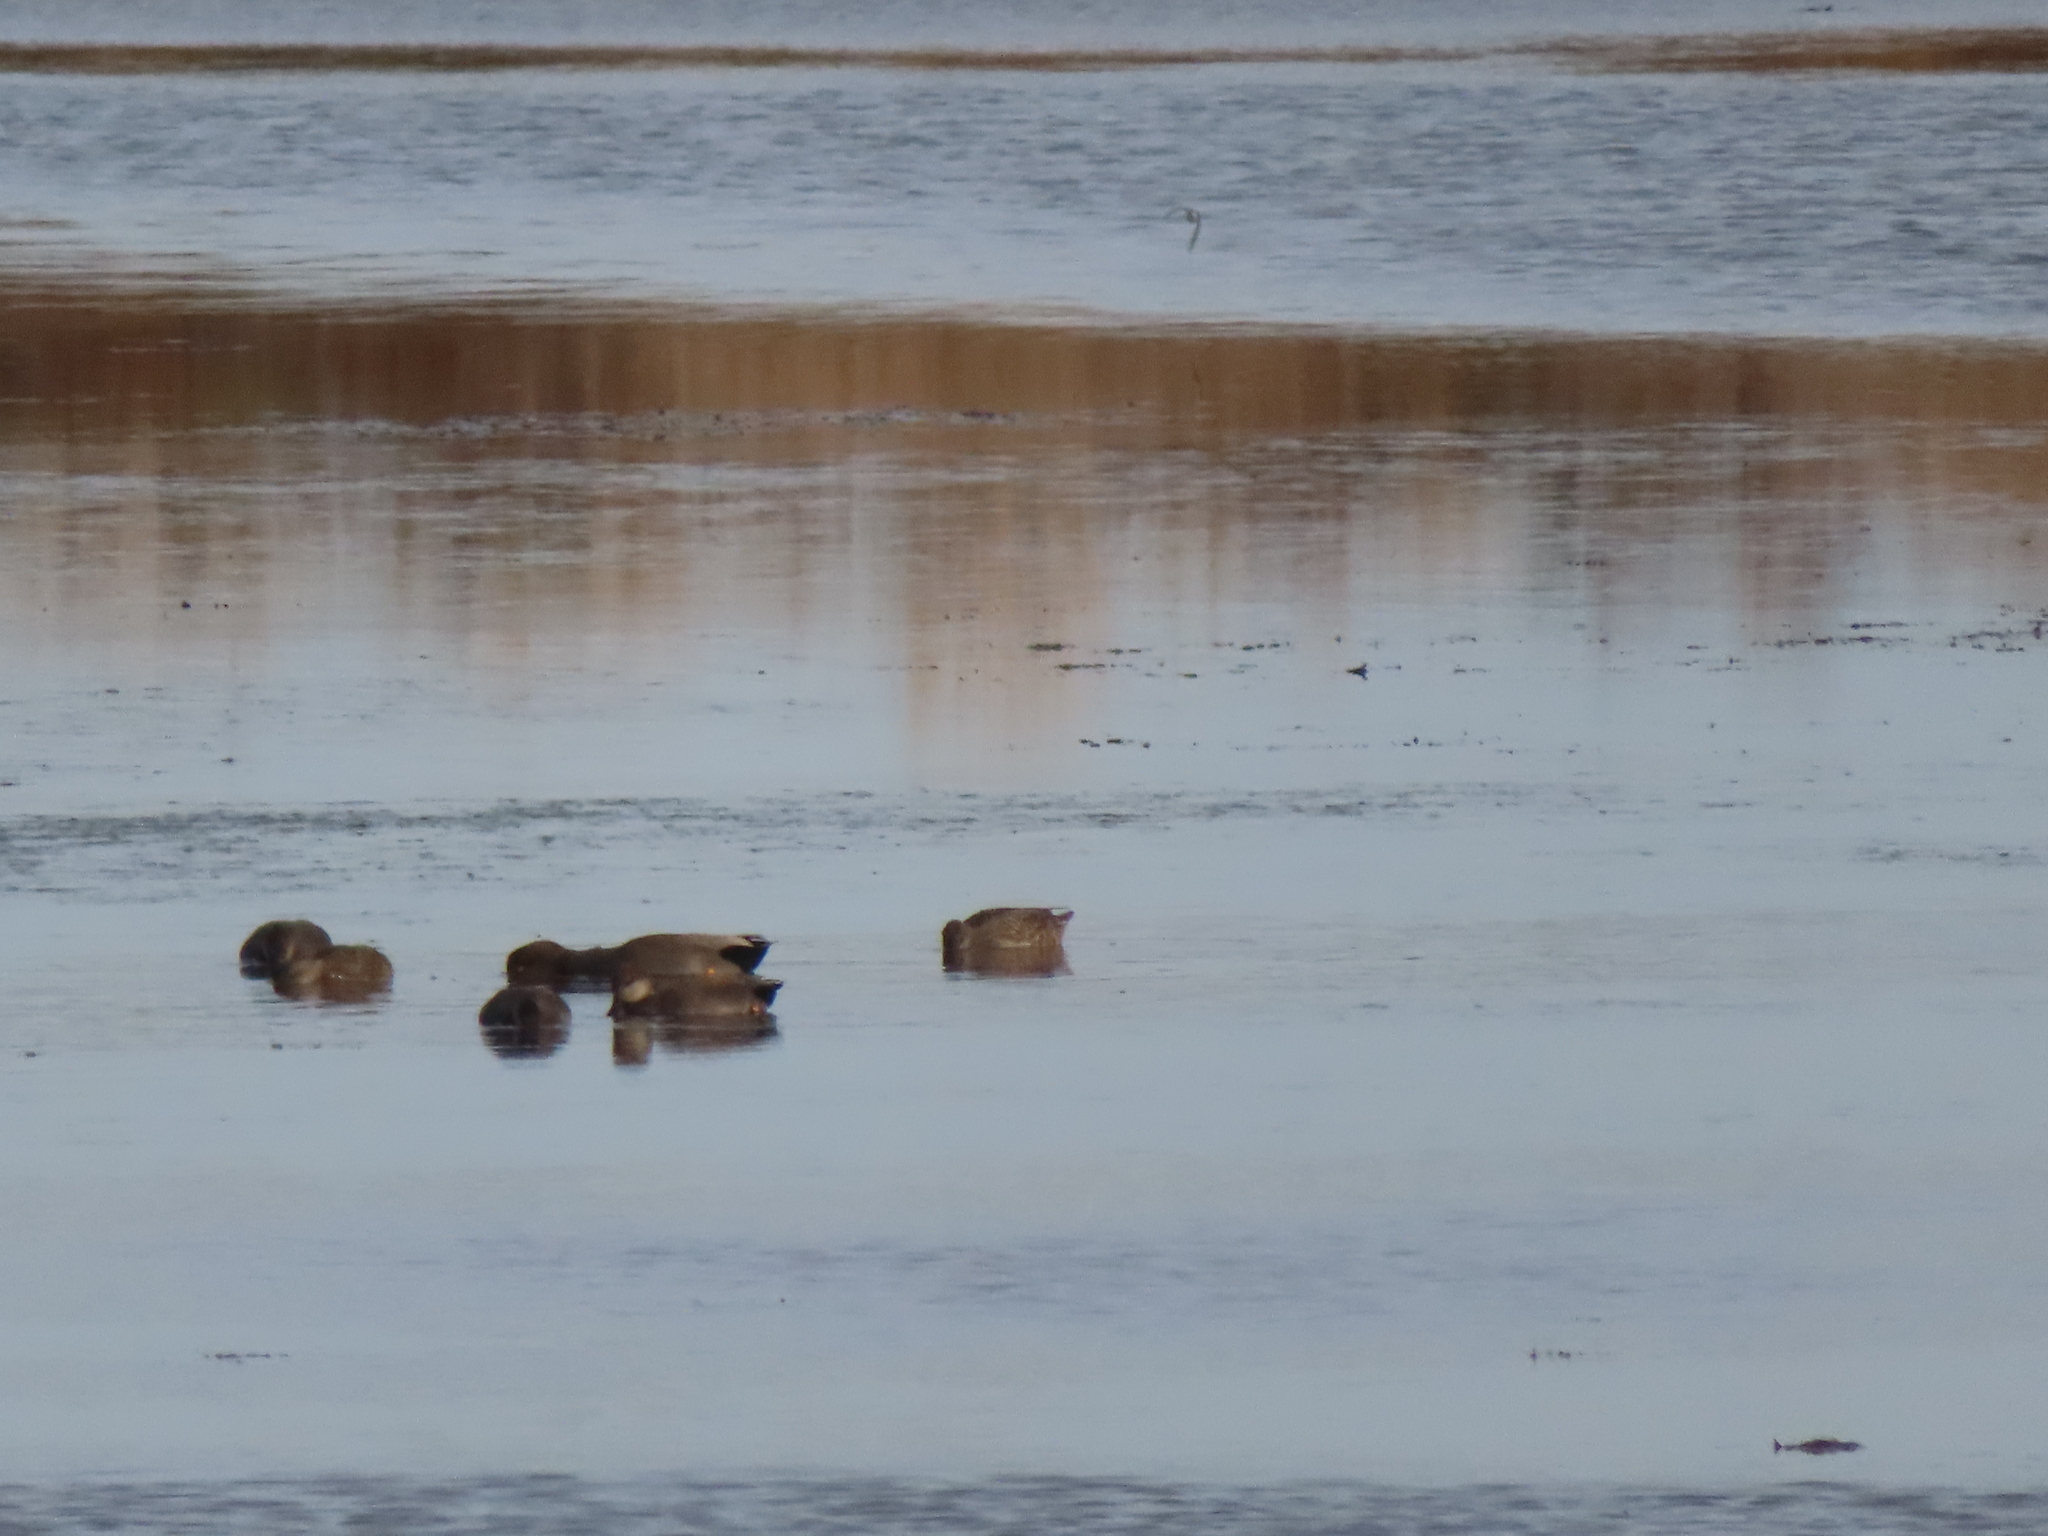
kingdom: Animalia
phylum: Chordata
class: Aves
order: Anseriformes
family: Anatidae
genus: Mareca
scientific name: Mareca strepera
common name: Gadwall
